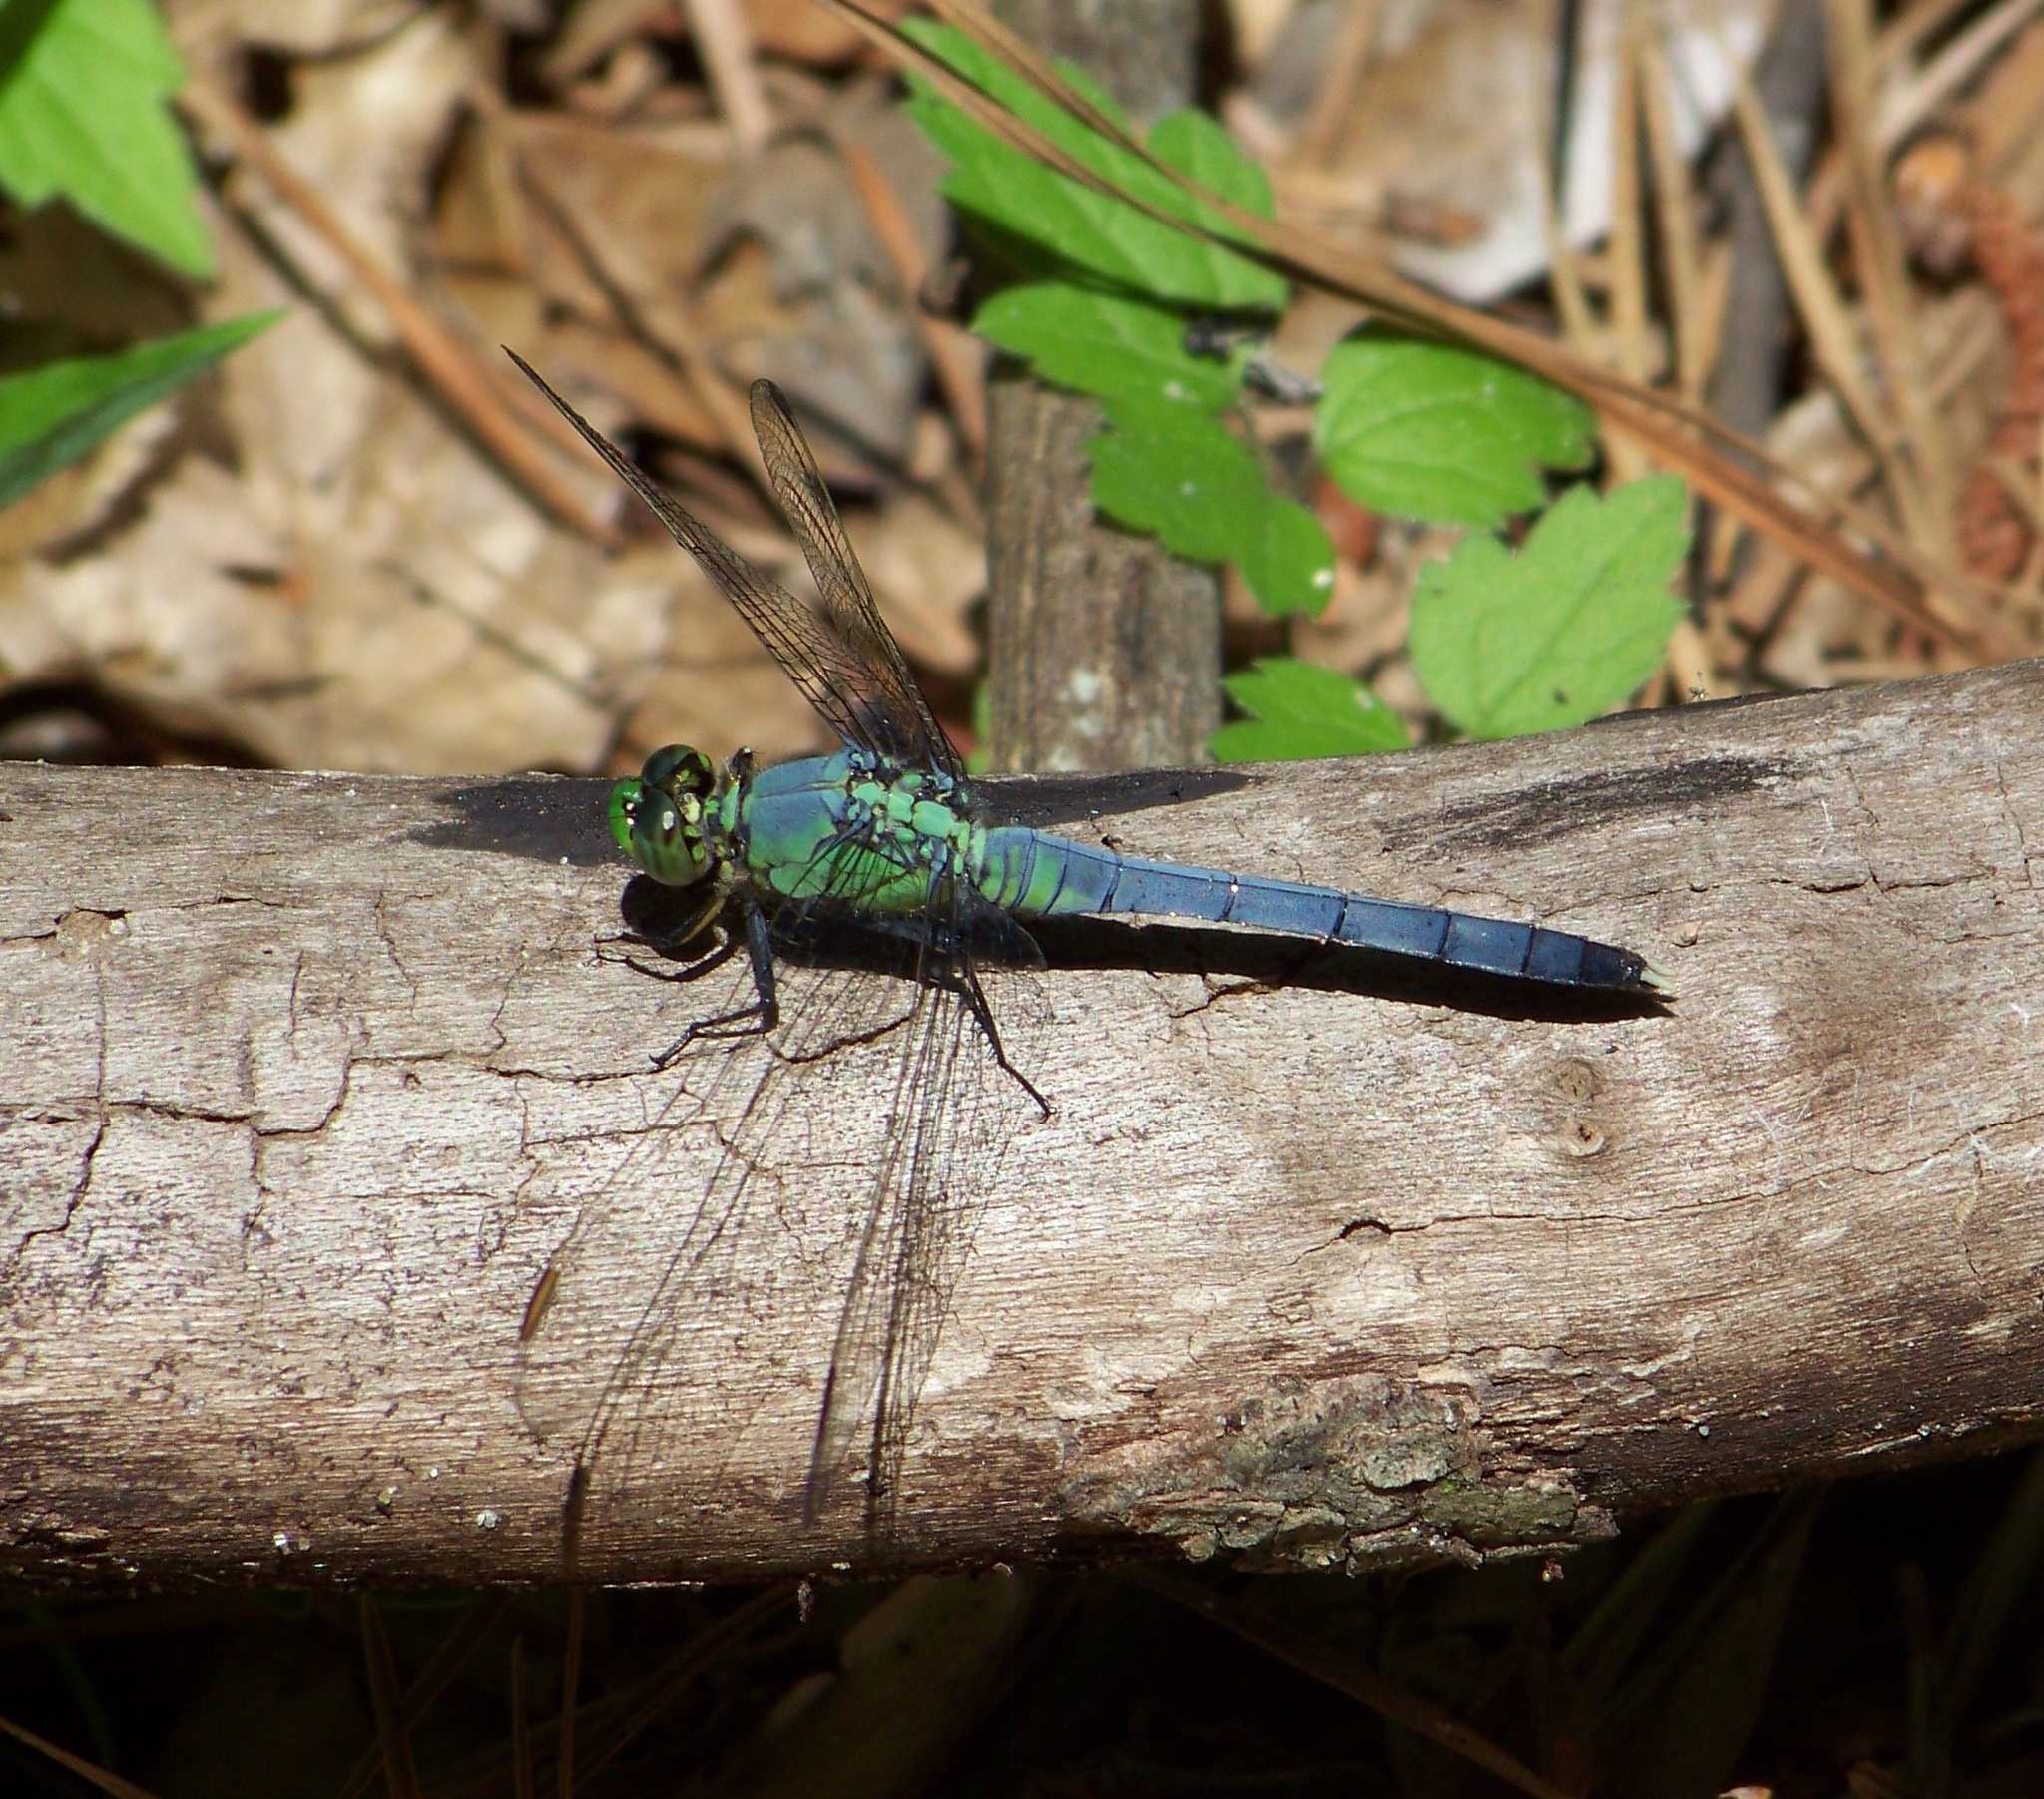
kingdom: Animalia
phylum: Arthropoda
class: Insecta
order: Odonata
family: Libellulidae
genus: Erythemis
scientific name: Erythemis simplicicollis
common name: Eastern pondhawk
